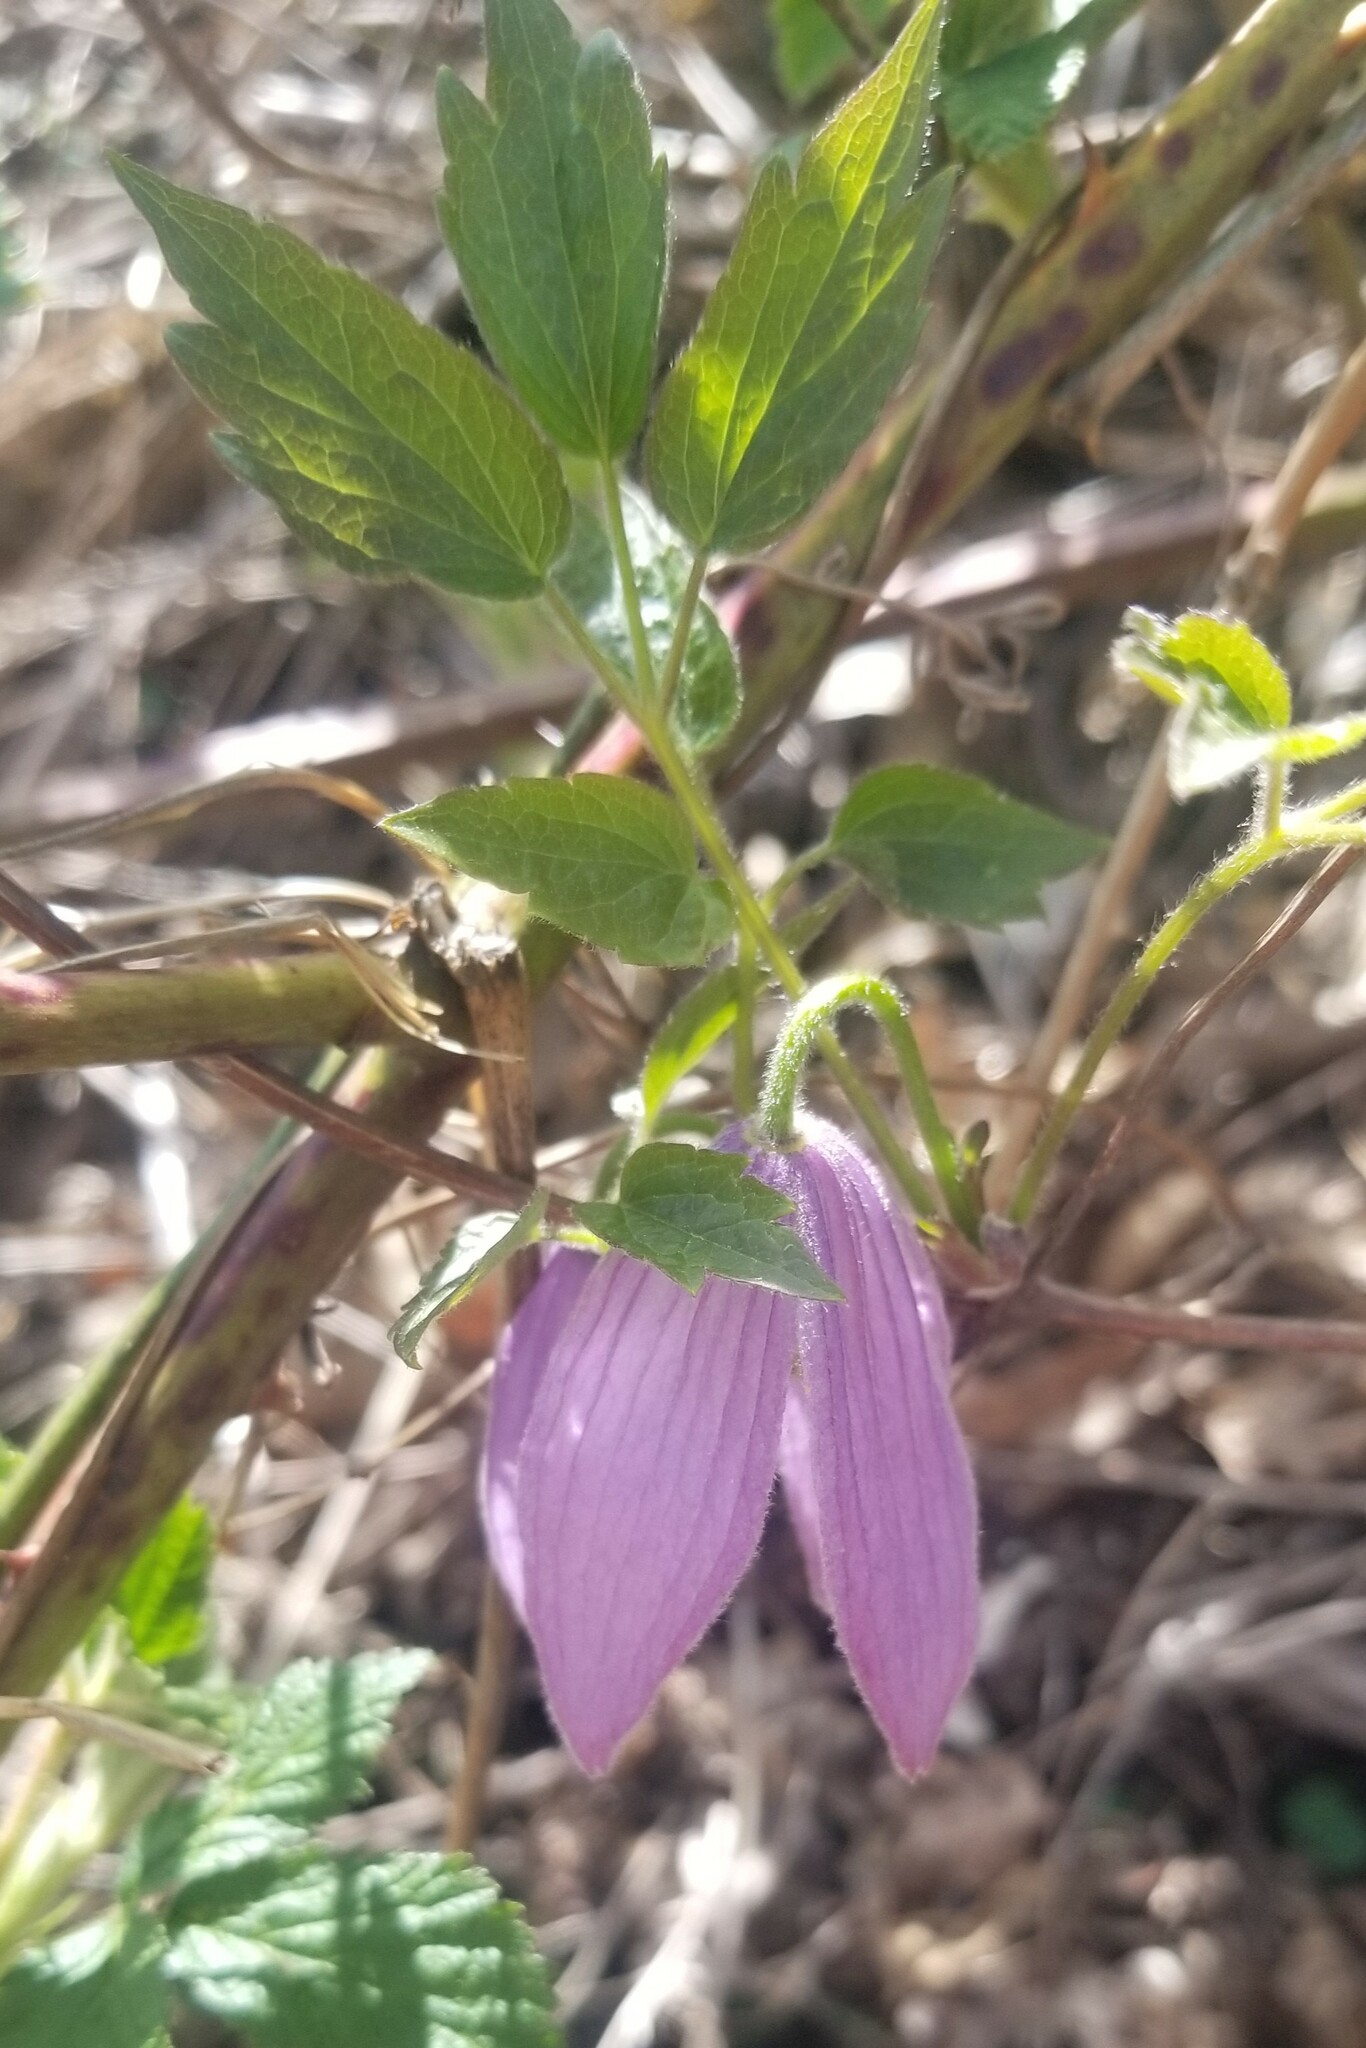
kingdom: Plantae
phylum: Tracheophyta
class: Magnoliopsida
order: Ranunculales
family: Ranunculaceae
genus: Clematis
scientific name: Clematis occidentalis
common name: Purple clematis
